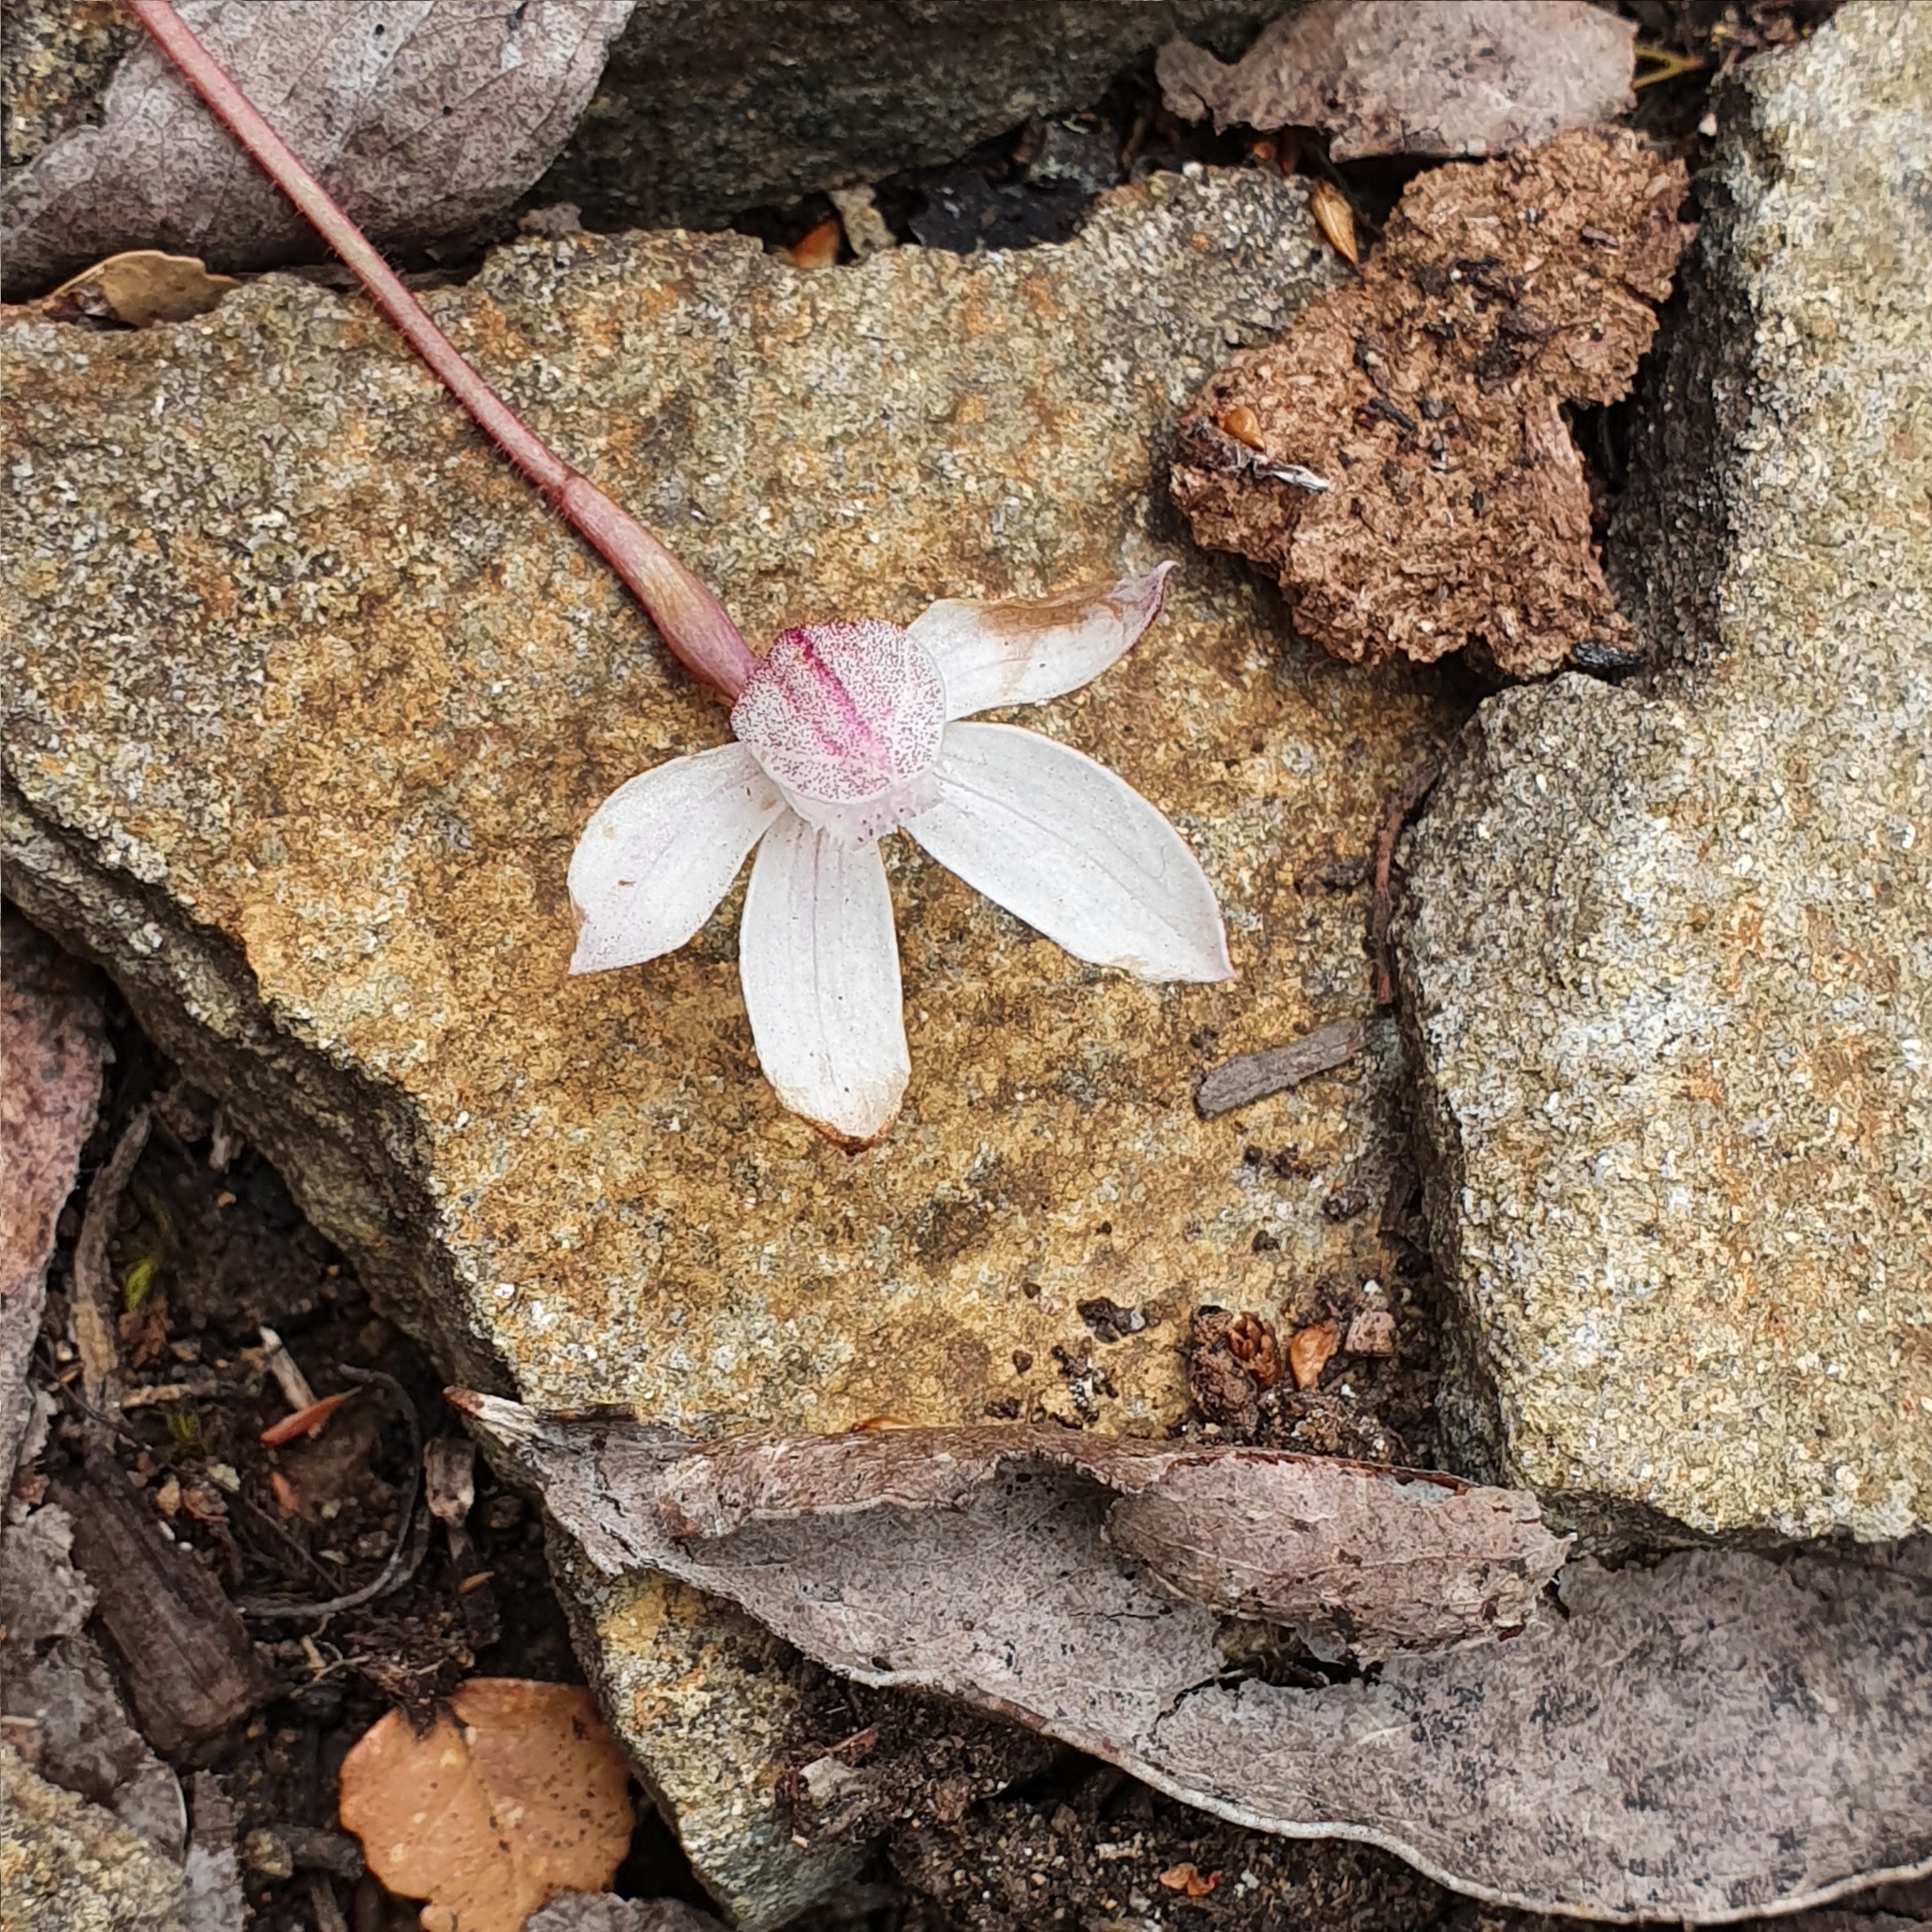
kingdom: Plantae
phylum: Tracheophyta
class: Liliopsida
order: Asparagales
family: Orchidaceae
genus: Caladenia
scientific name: Caladenia alpina
